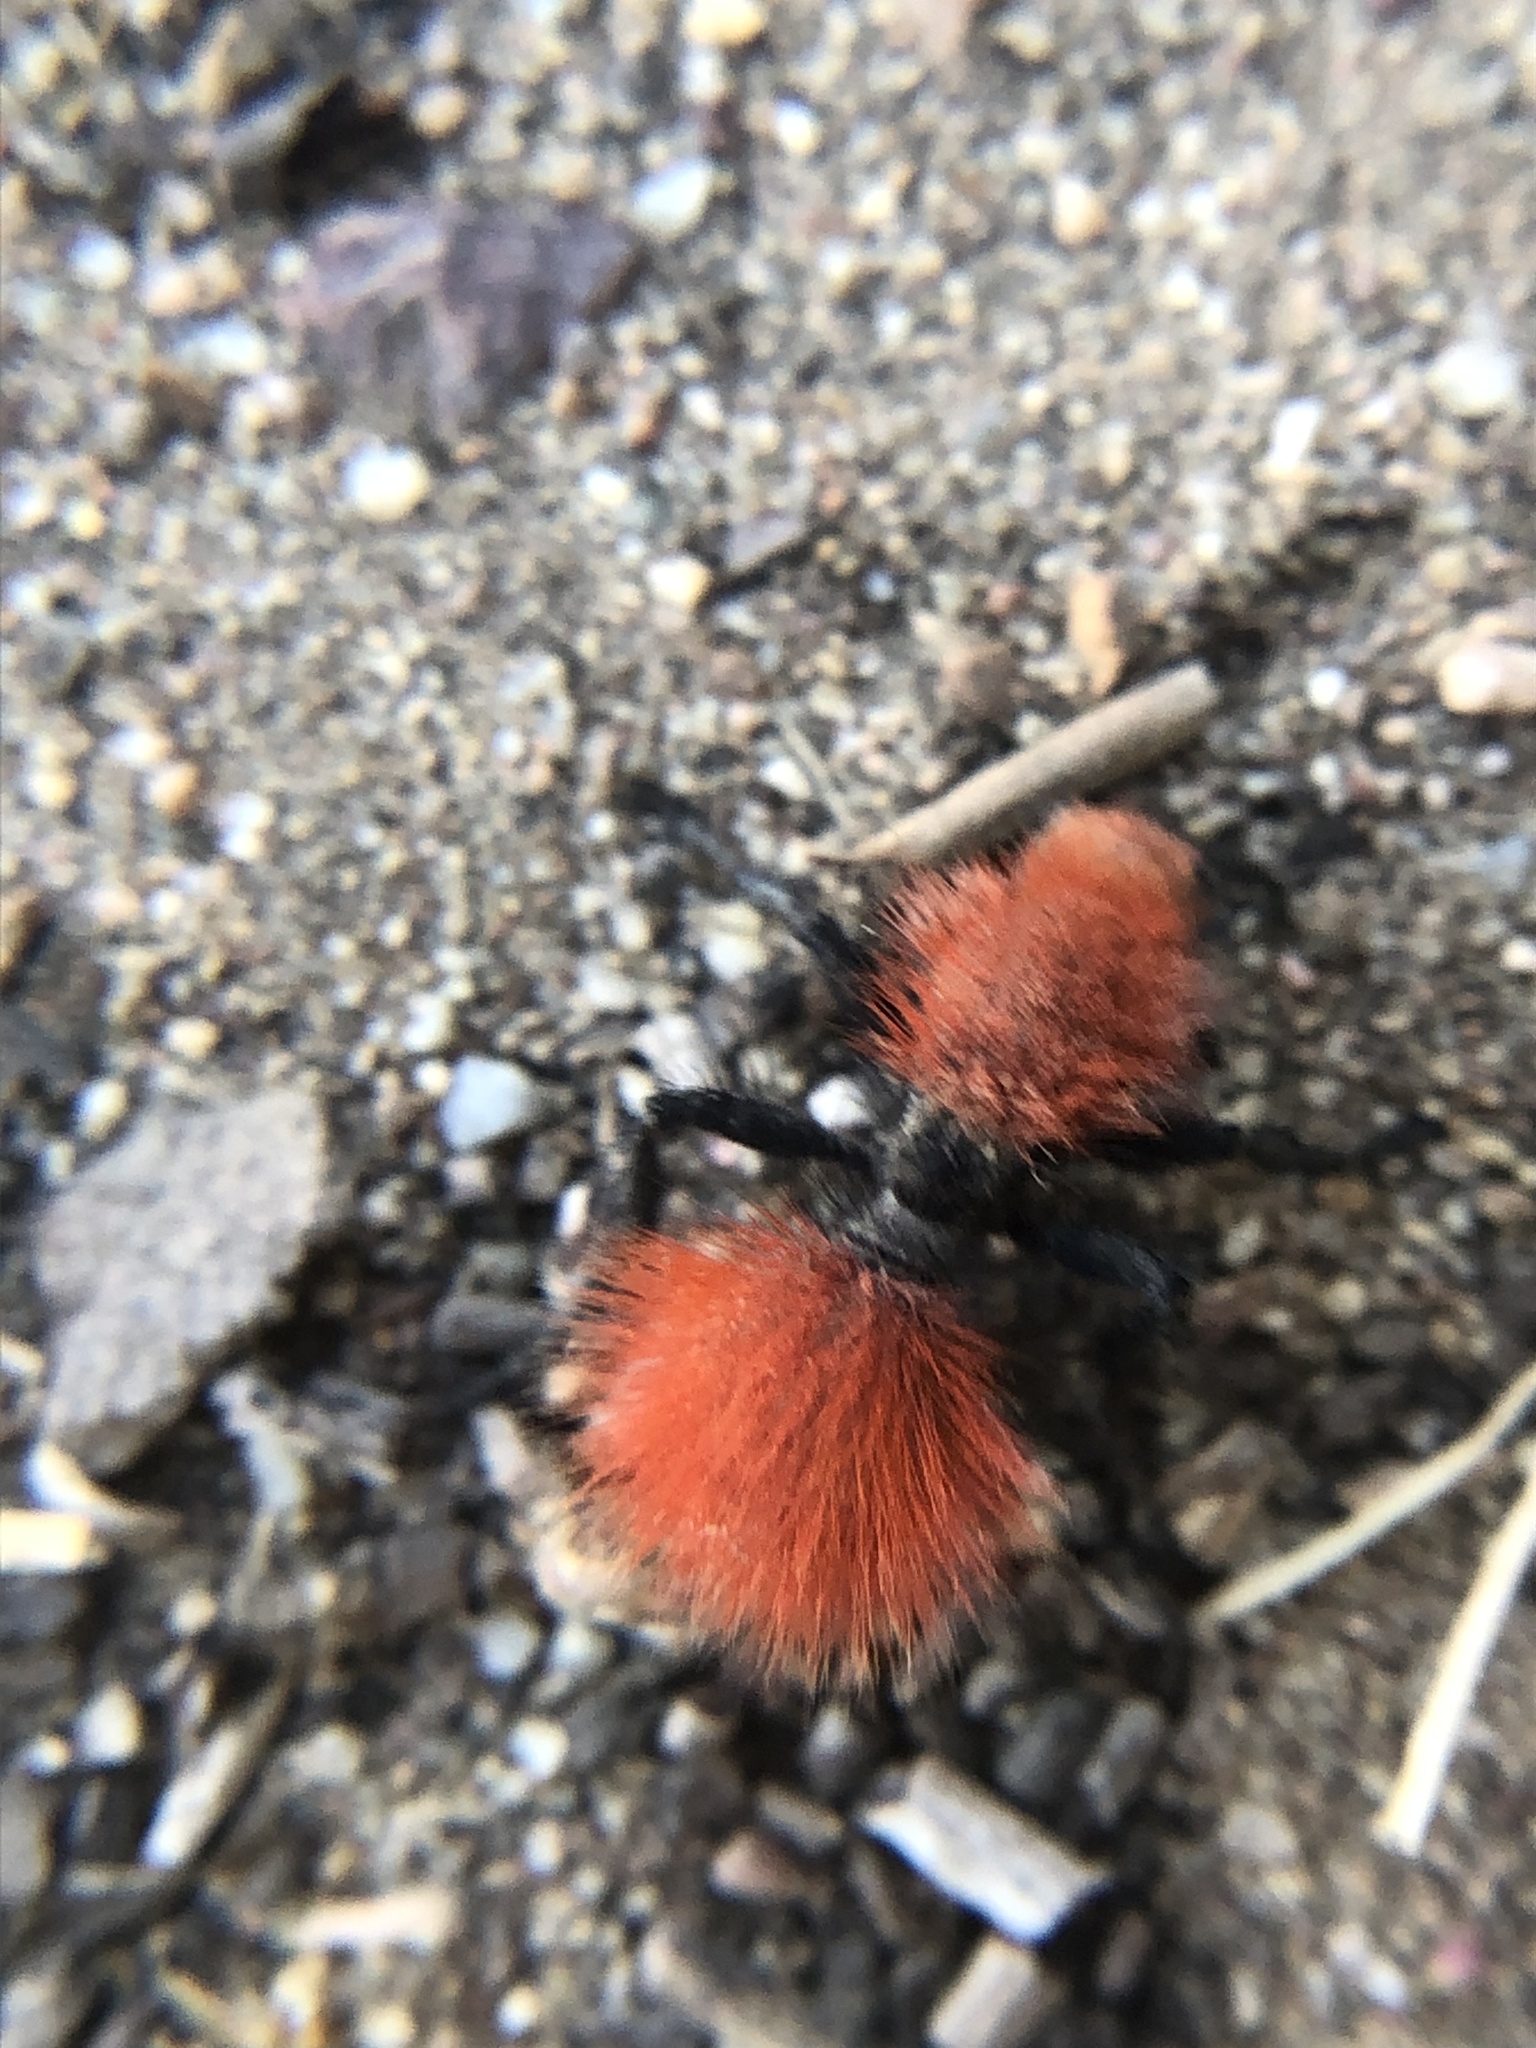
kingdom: Animalia
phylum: Arthropoda
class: Insecta
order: Hymenoptera
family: Mutillidae
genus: Dasymutilla
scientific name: Dasymutilla
